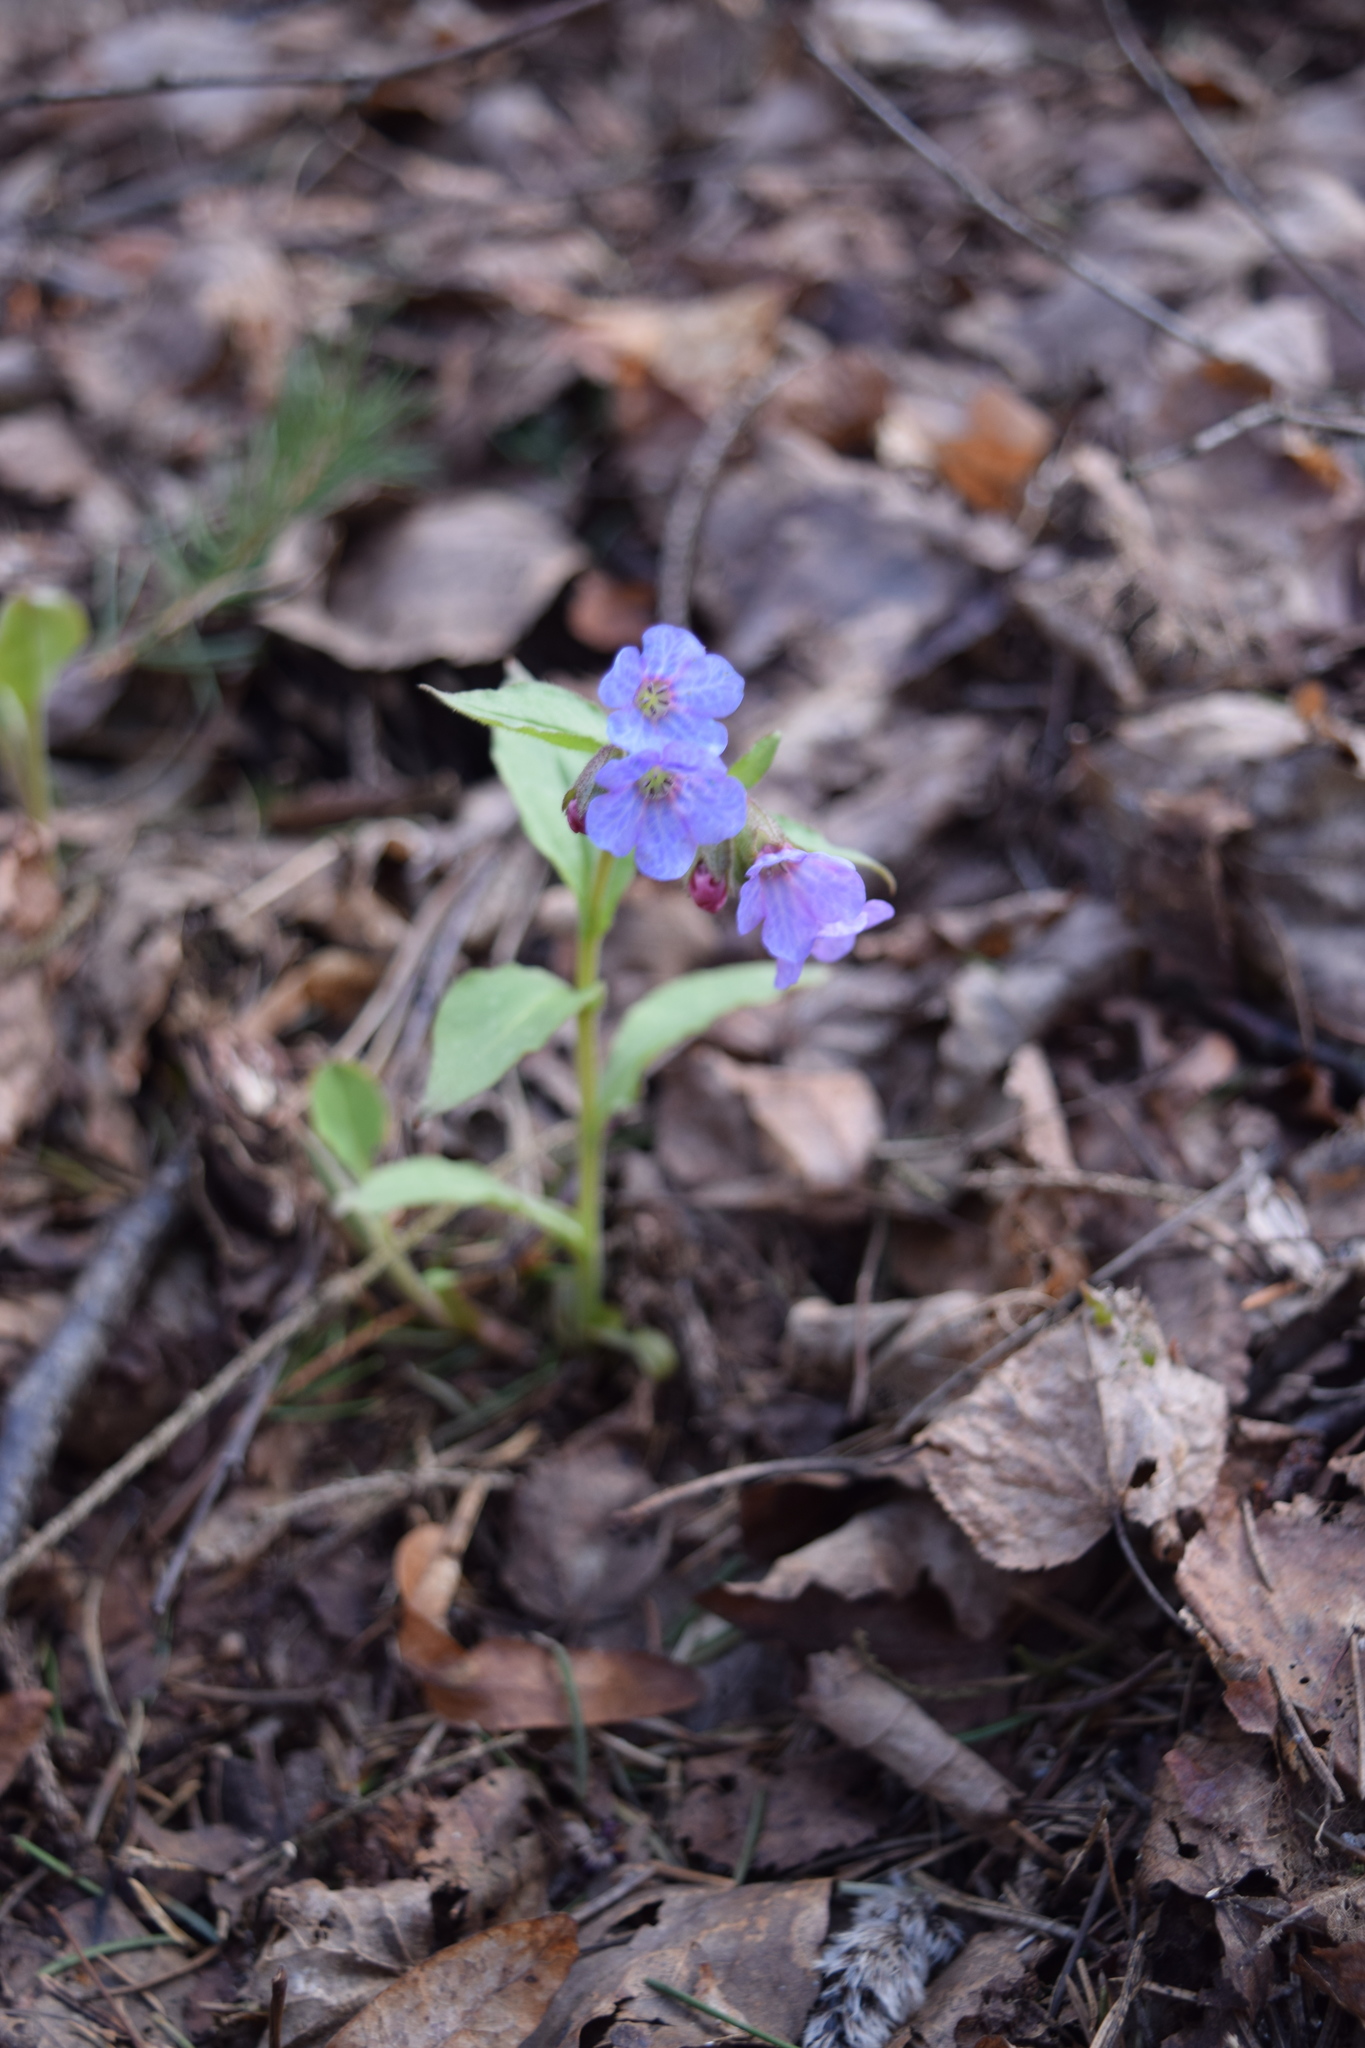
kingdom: Plantae
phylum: Tracheophyta
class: Magnoliopsida
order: Boraginales
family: Boraginaceae
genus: Pulmonaria
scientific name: Pulmonaria obscura
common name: Suffolk lungwort
